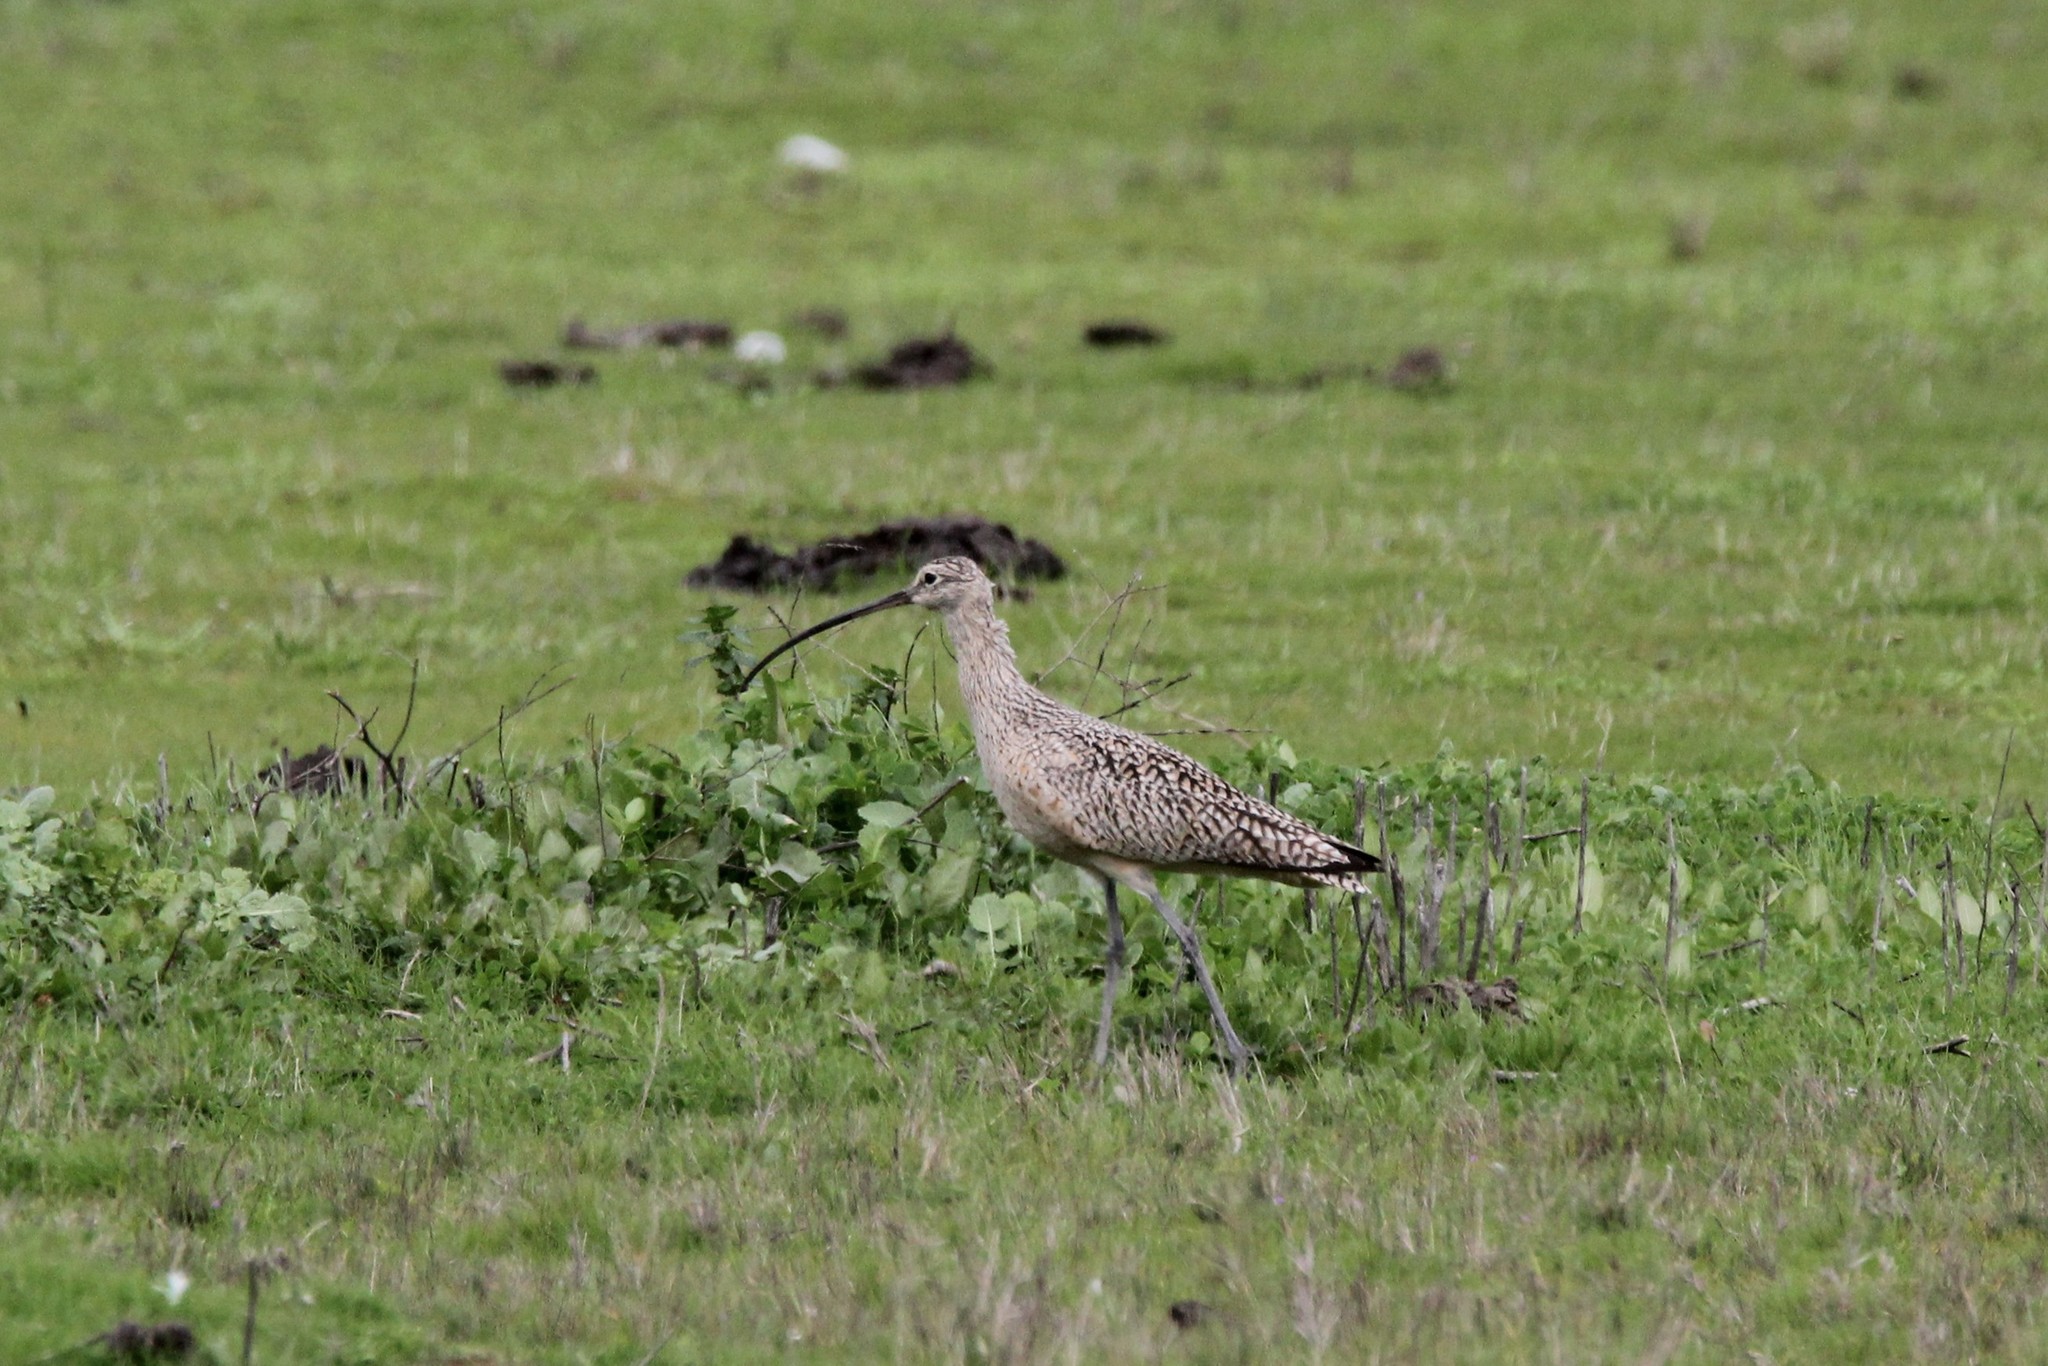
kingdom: Animalia
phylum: Chordata
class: Aves
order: Charadriiformes
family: Scolopacidae
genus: Numenius
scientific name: Numenius americanus
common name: Long-billed curlew
